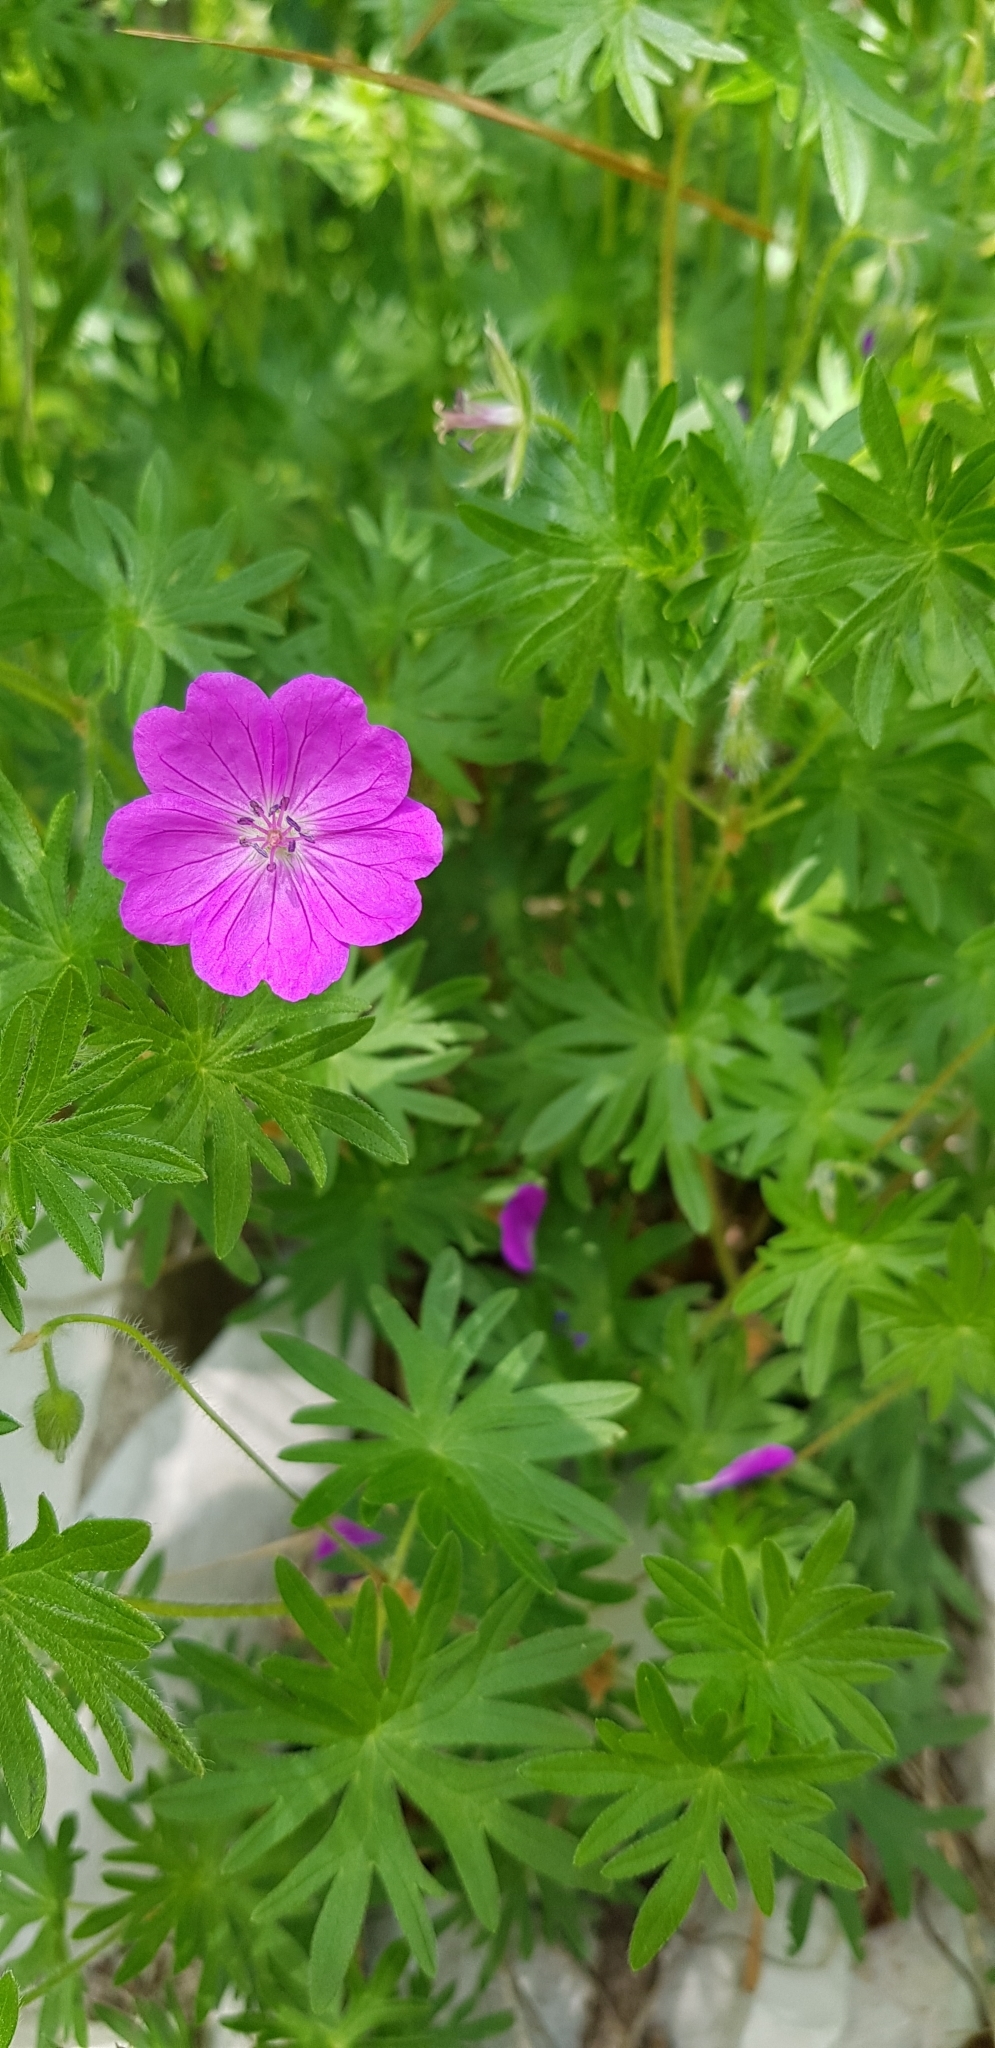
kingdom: Plantae
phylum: Tracheophyta
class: Magnoliopsida
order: Geraniales
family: Geraniaceae
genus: Geranium
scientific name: Geranium sanguineum
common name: Bloody crane's-bill
